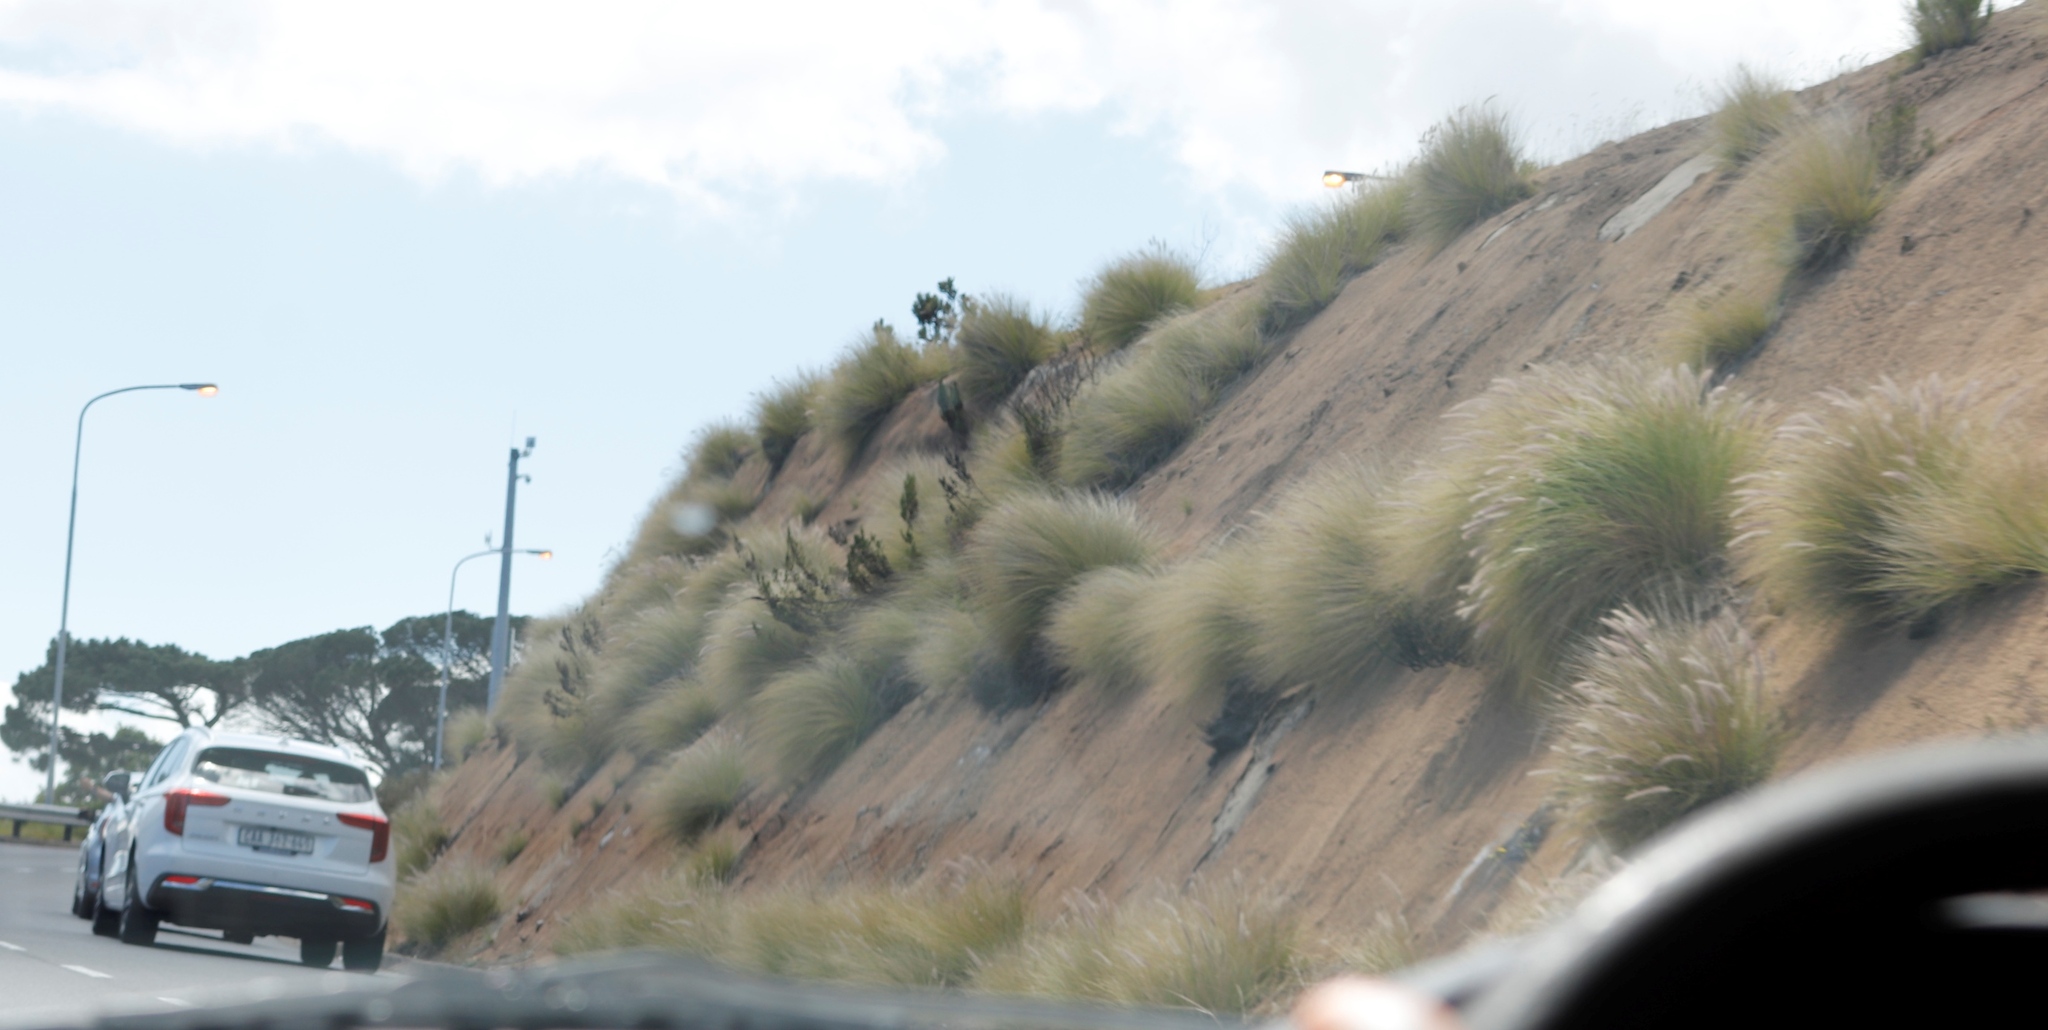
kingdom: Plantae
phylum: Tracheophyta
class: Liliopsida
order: Poales
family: Poaceae
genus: Cenchrus
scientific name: Cenchrus setaceus
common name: Crimson fountaingrass
